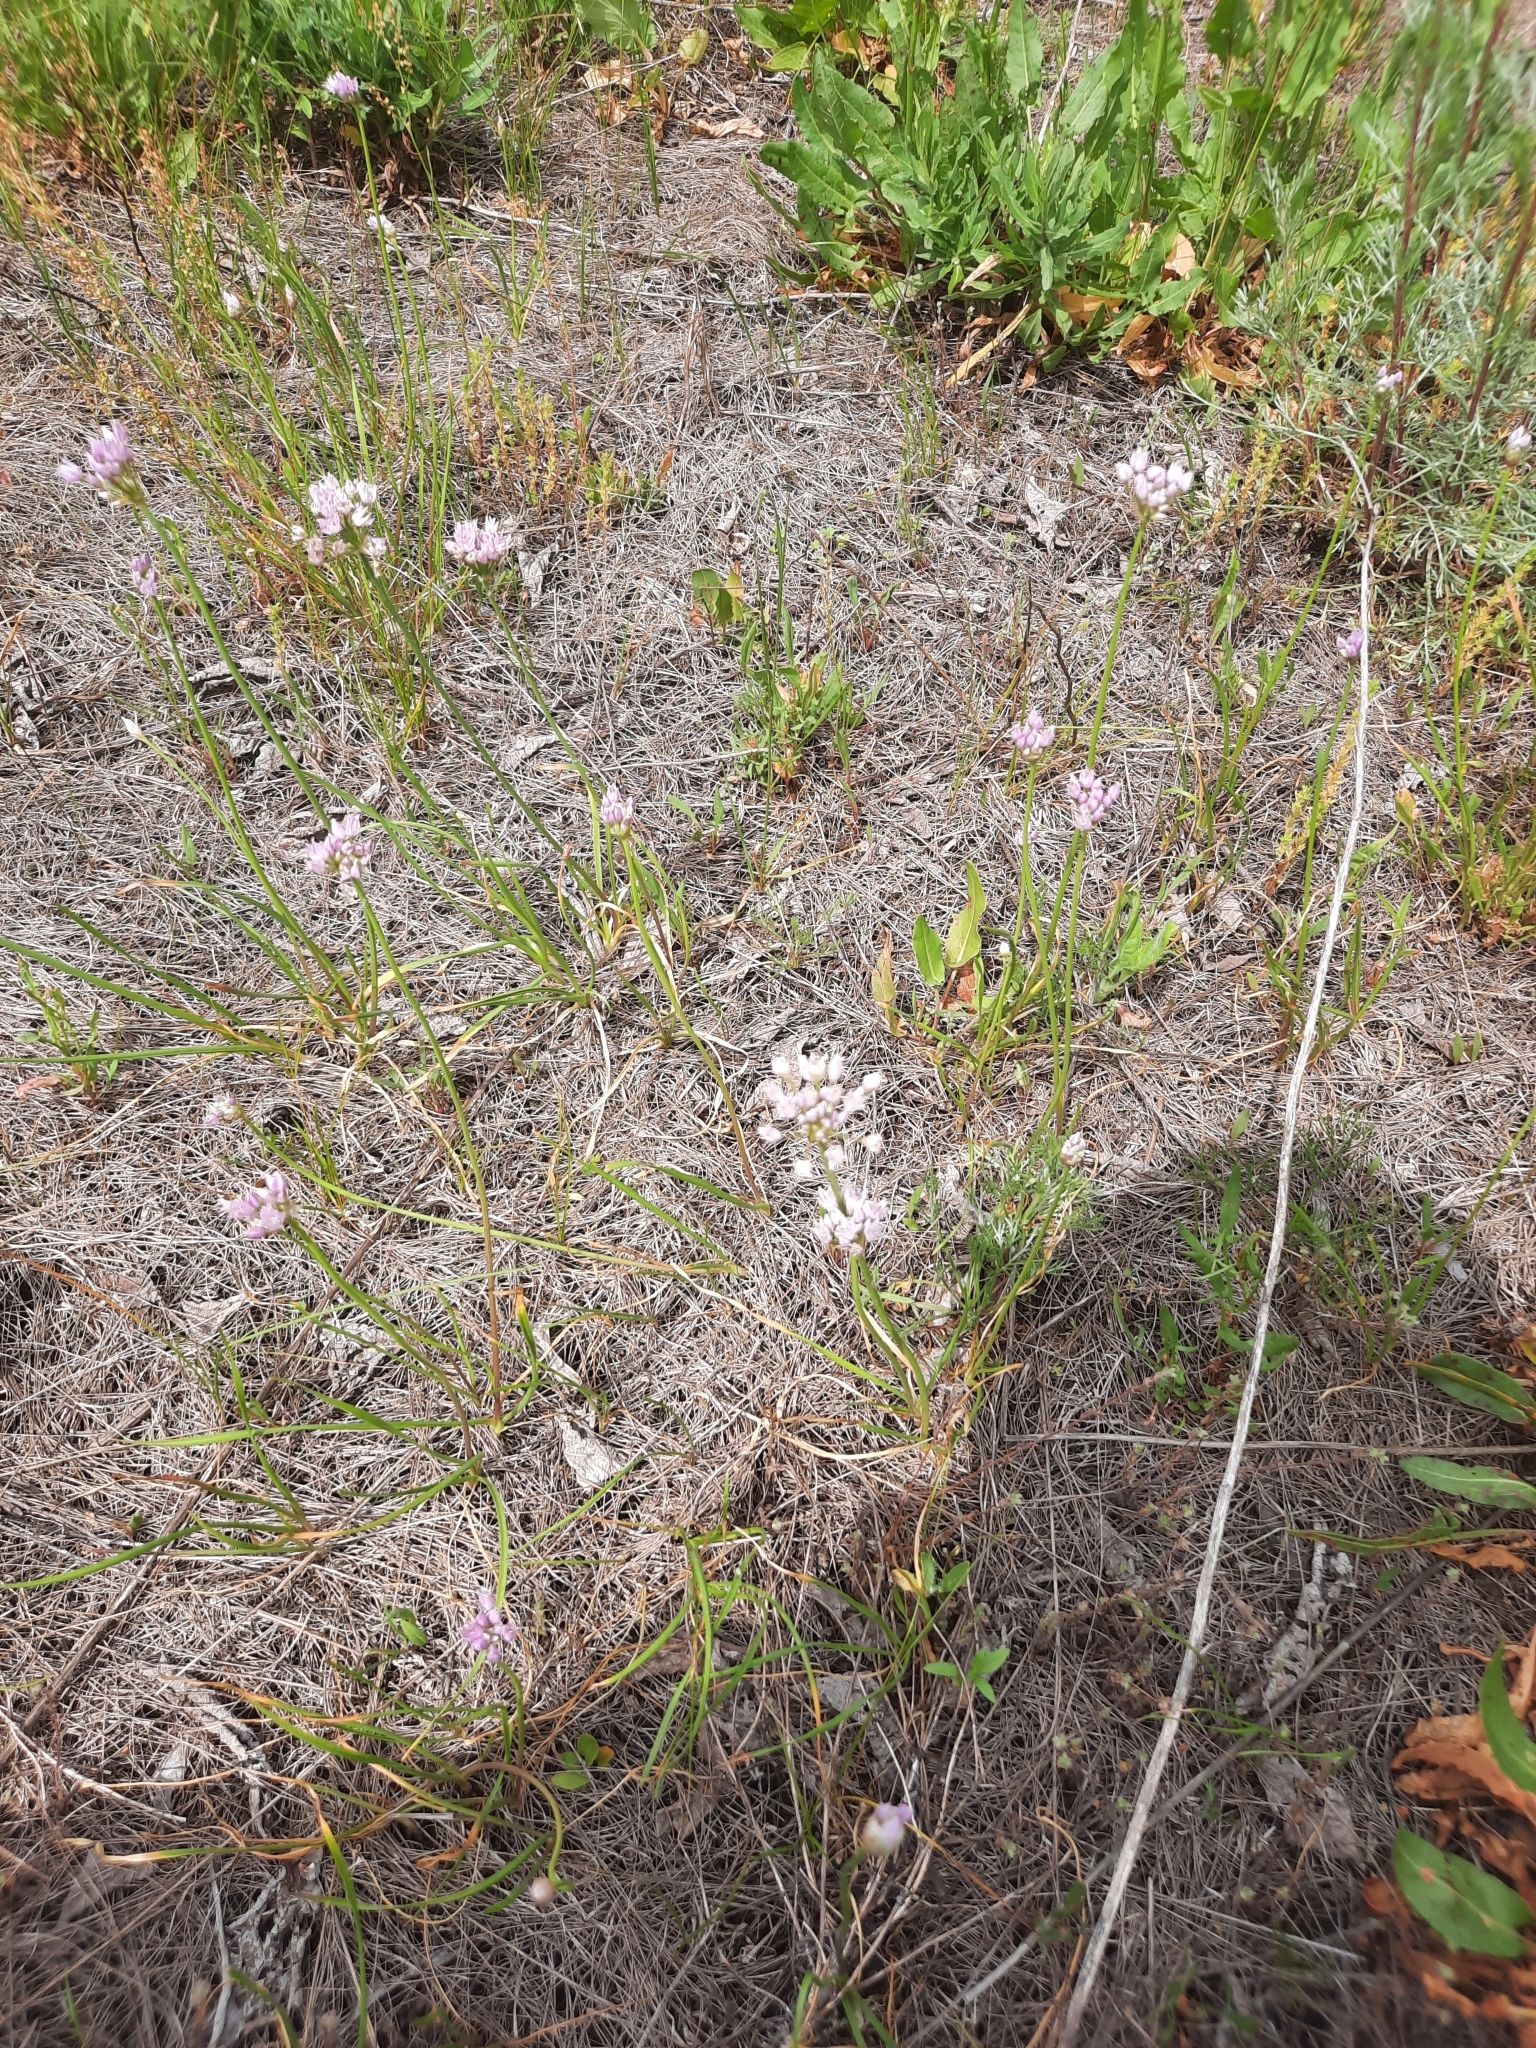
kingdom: Plantae
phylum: Tracheophyta
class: Liliopsida
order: Asparagales
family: Amaryllidaceae
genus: Allium
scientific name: Allium angulosum
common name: Mouse garlic
